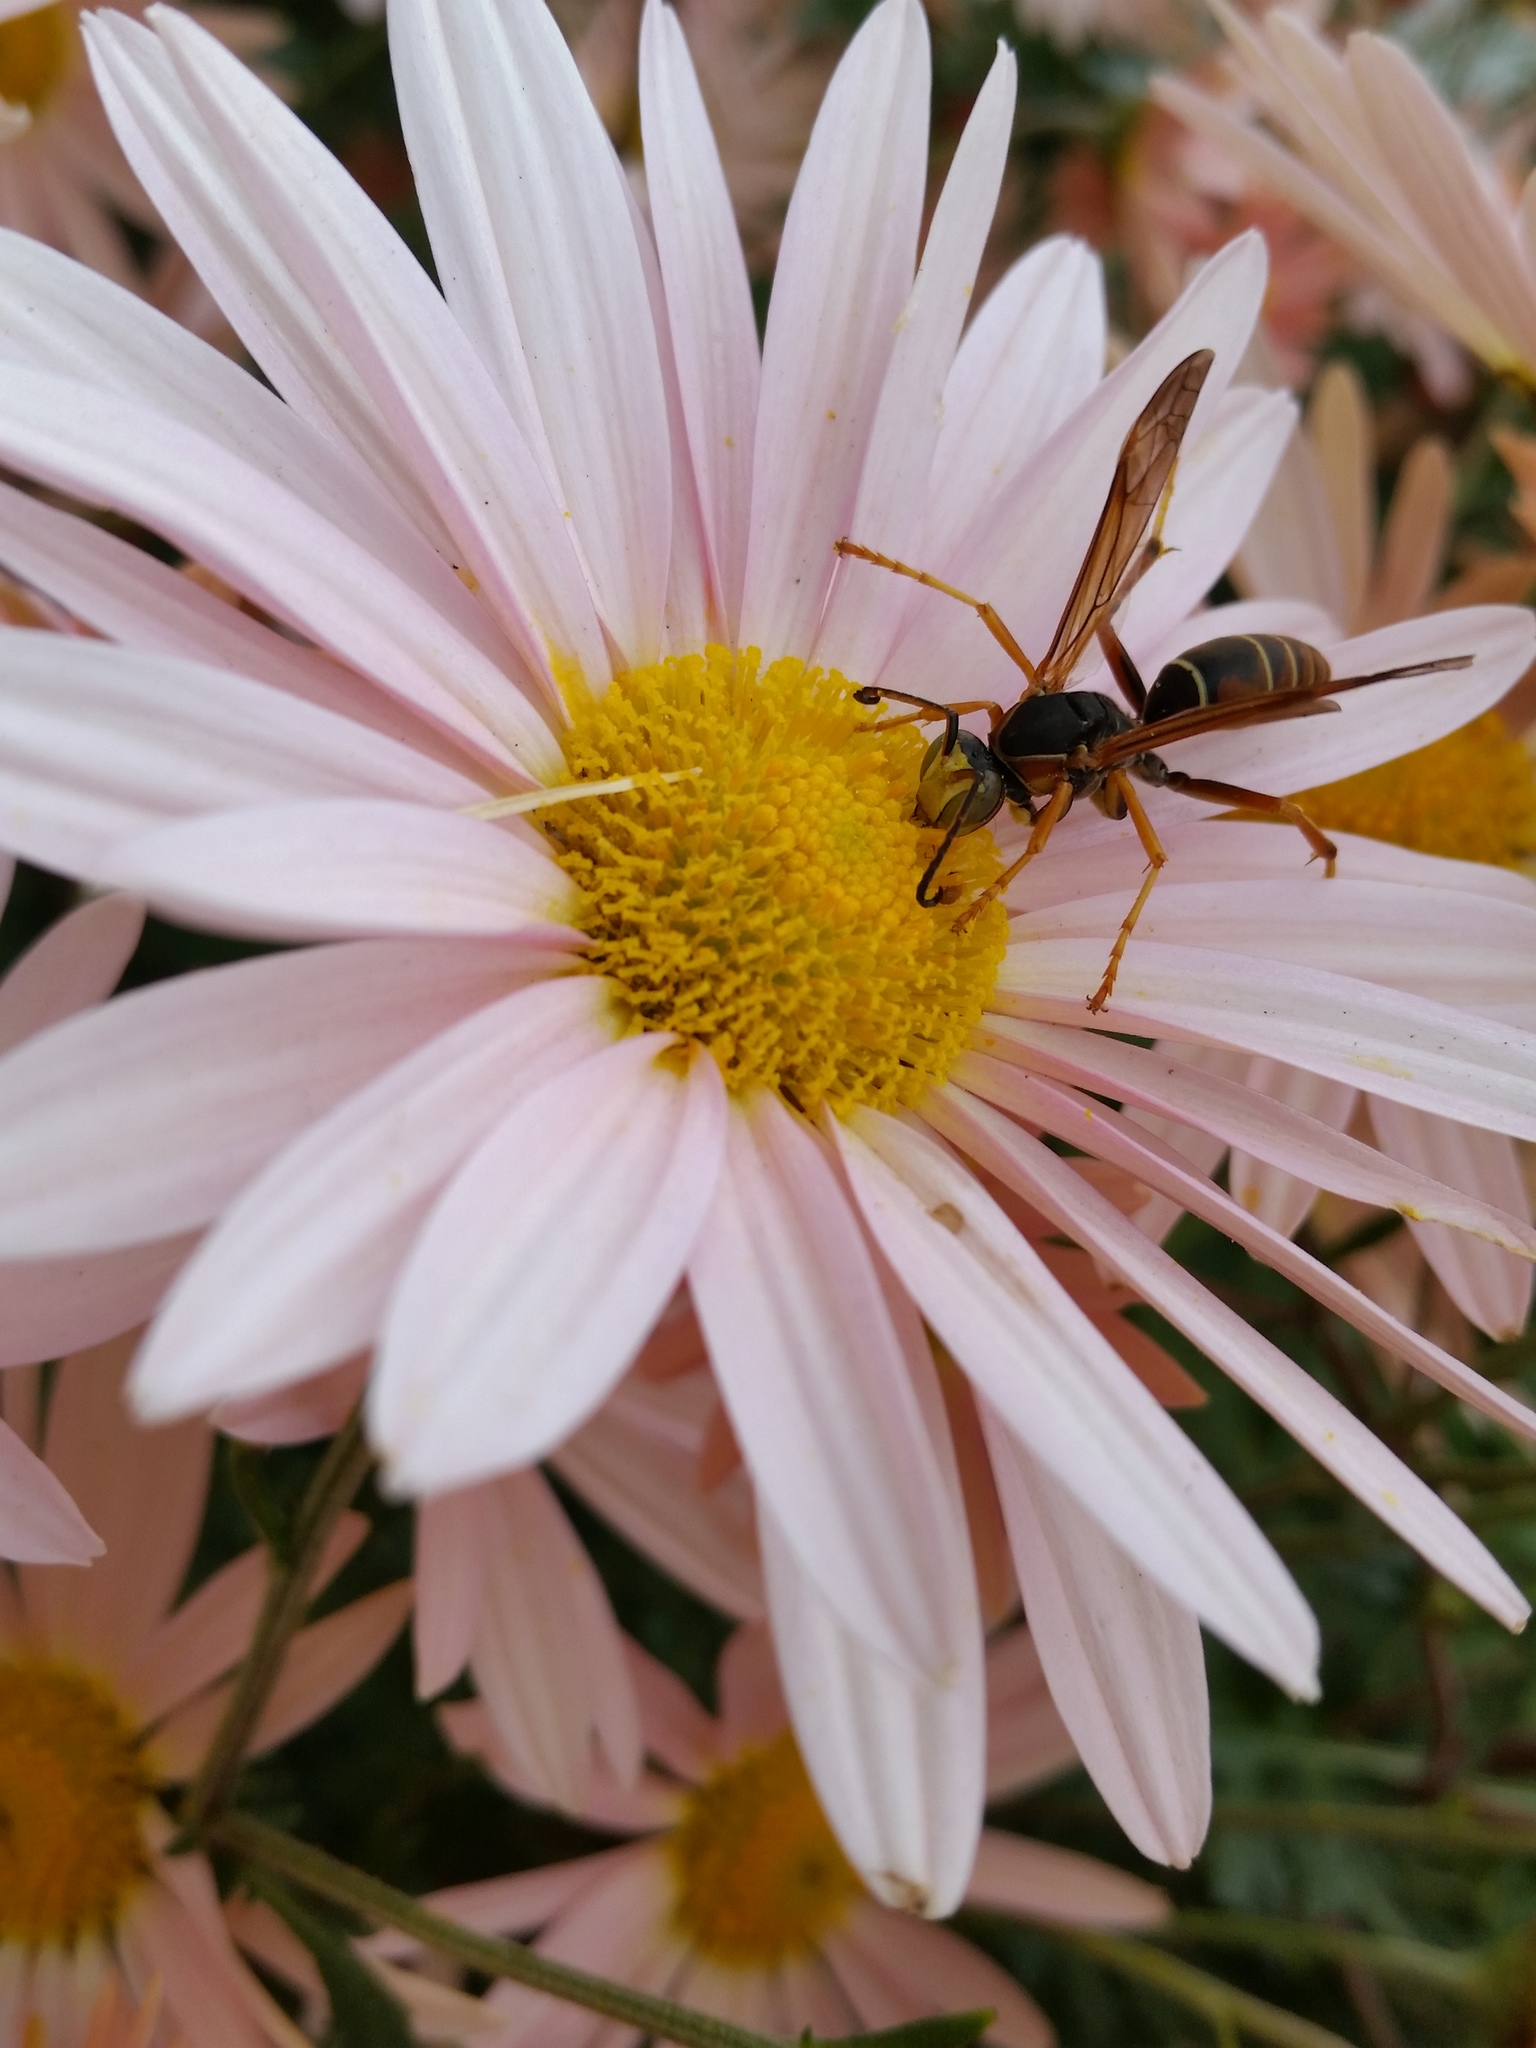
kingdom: Animalia
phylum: Arthropoda
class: Insecta
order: Hymenoptera
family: Eumenidae
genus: Polistes
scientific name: Polistes fuscatus
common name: Dark paper wasp
